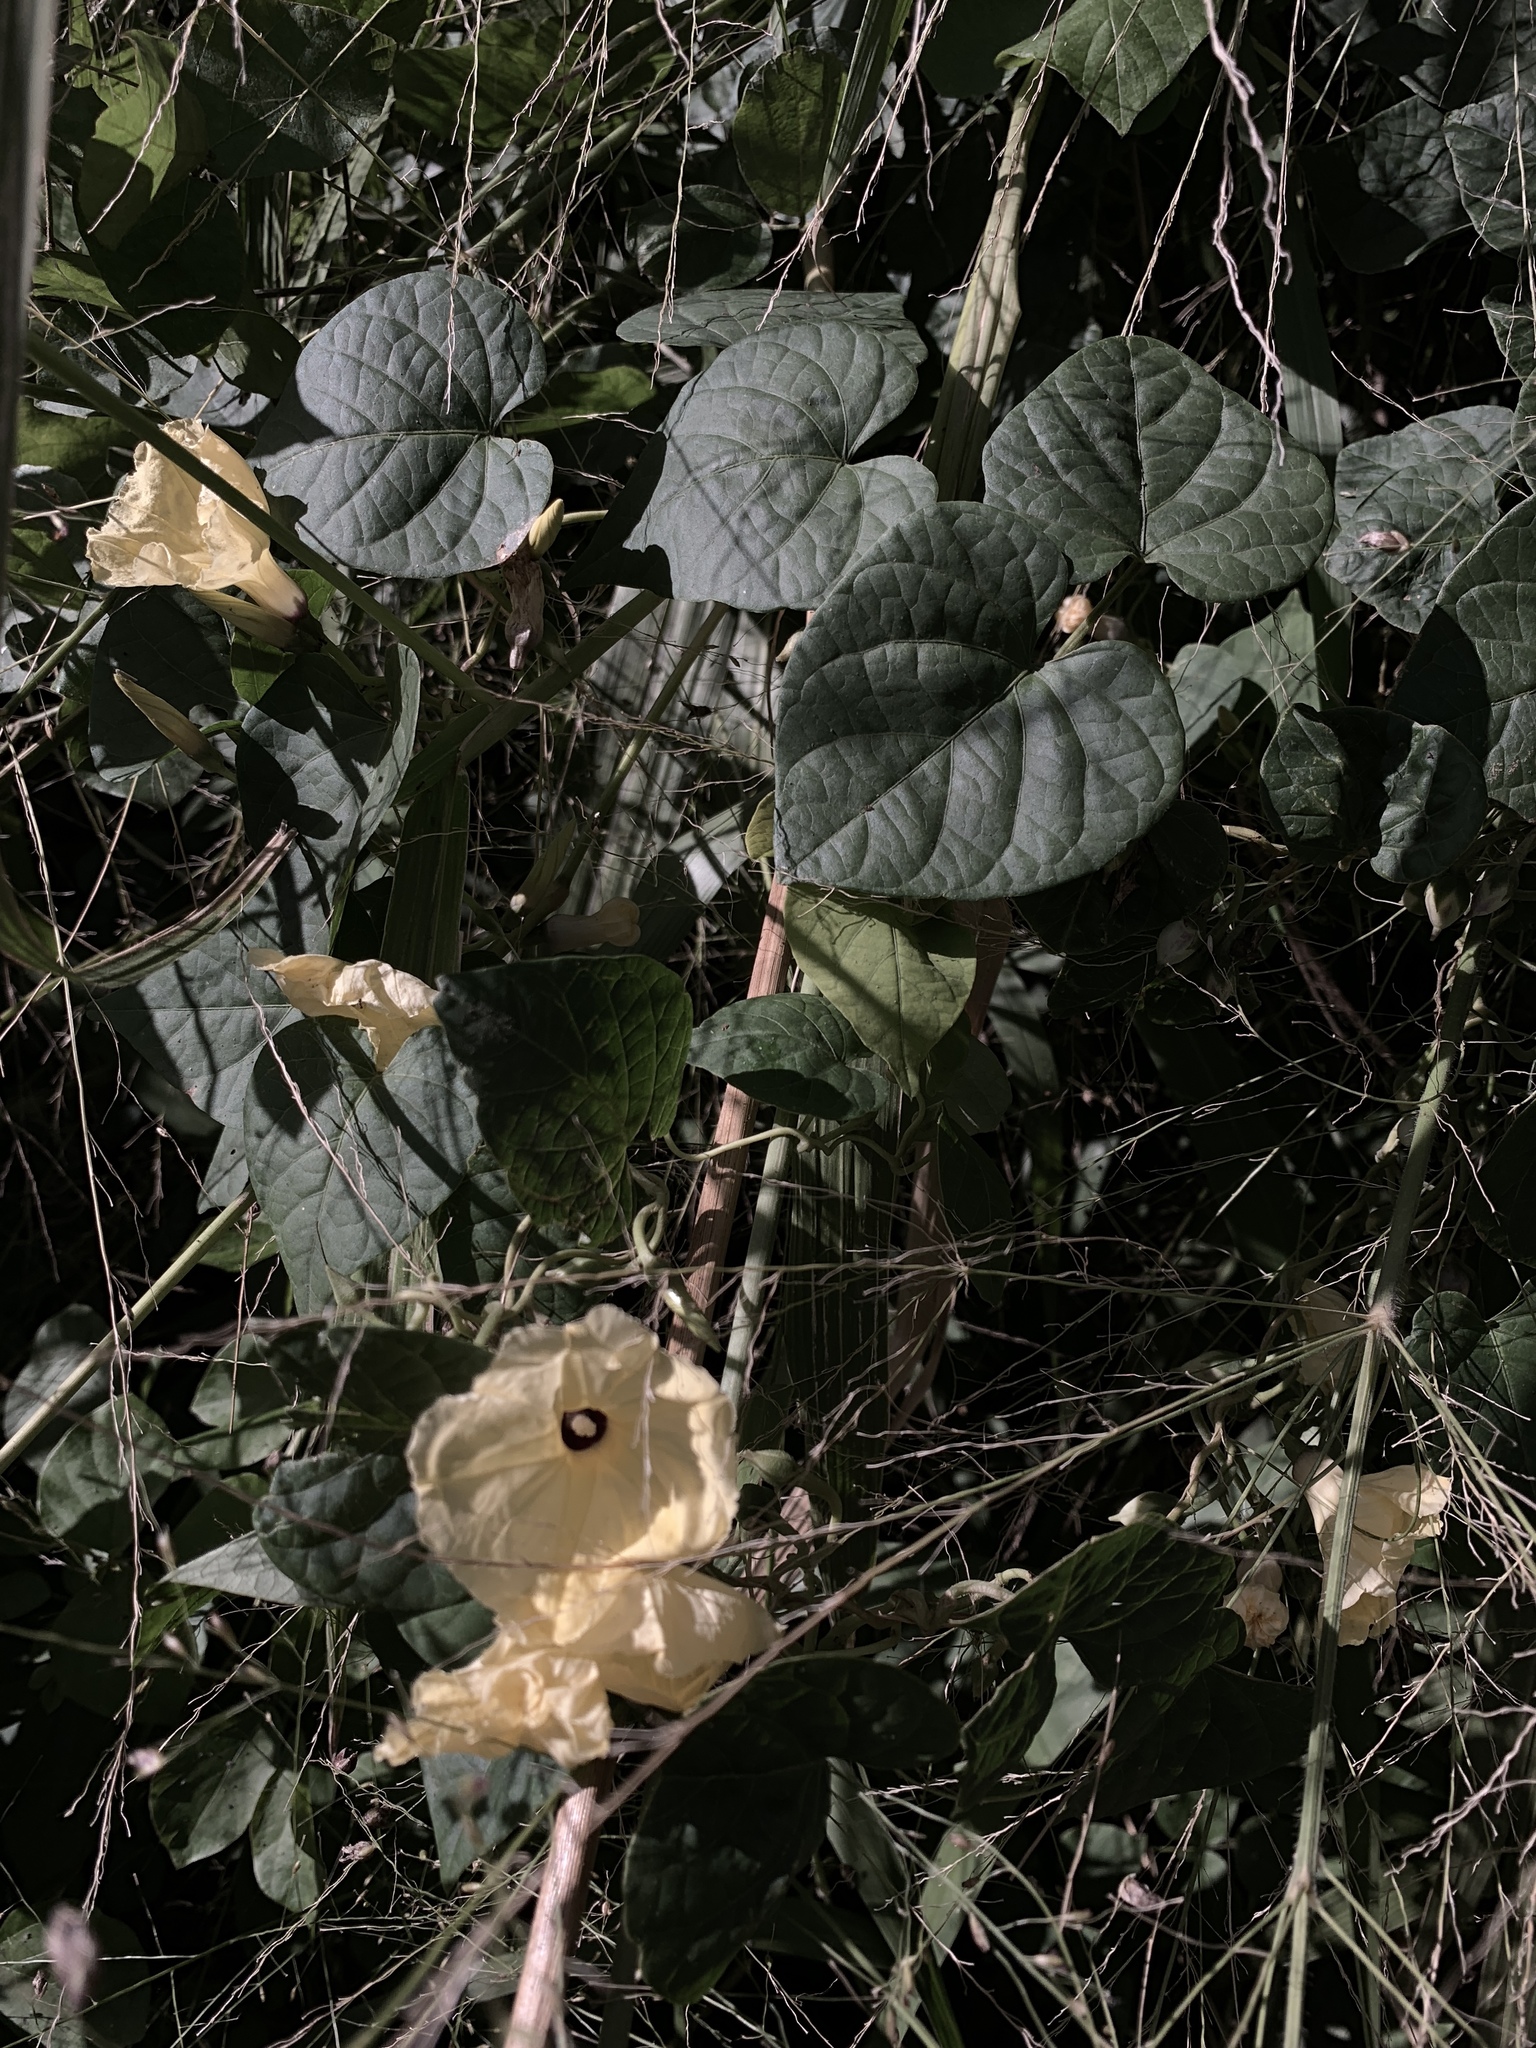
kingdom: Plantae
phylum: Tracheophyta
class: Magnoliopsida
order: Solanales
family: Convolvulaceae
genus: Ipomoea
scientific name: Ipomoea ochracea
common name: Fence morning-glory
